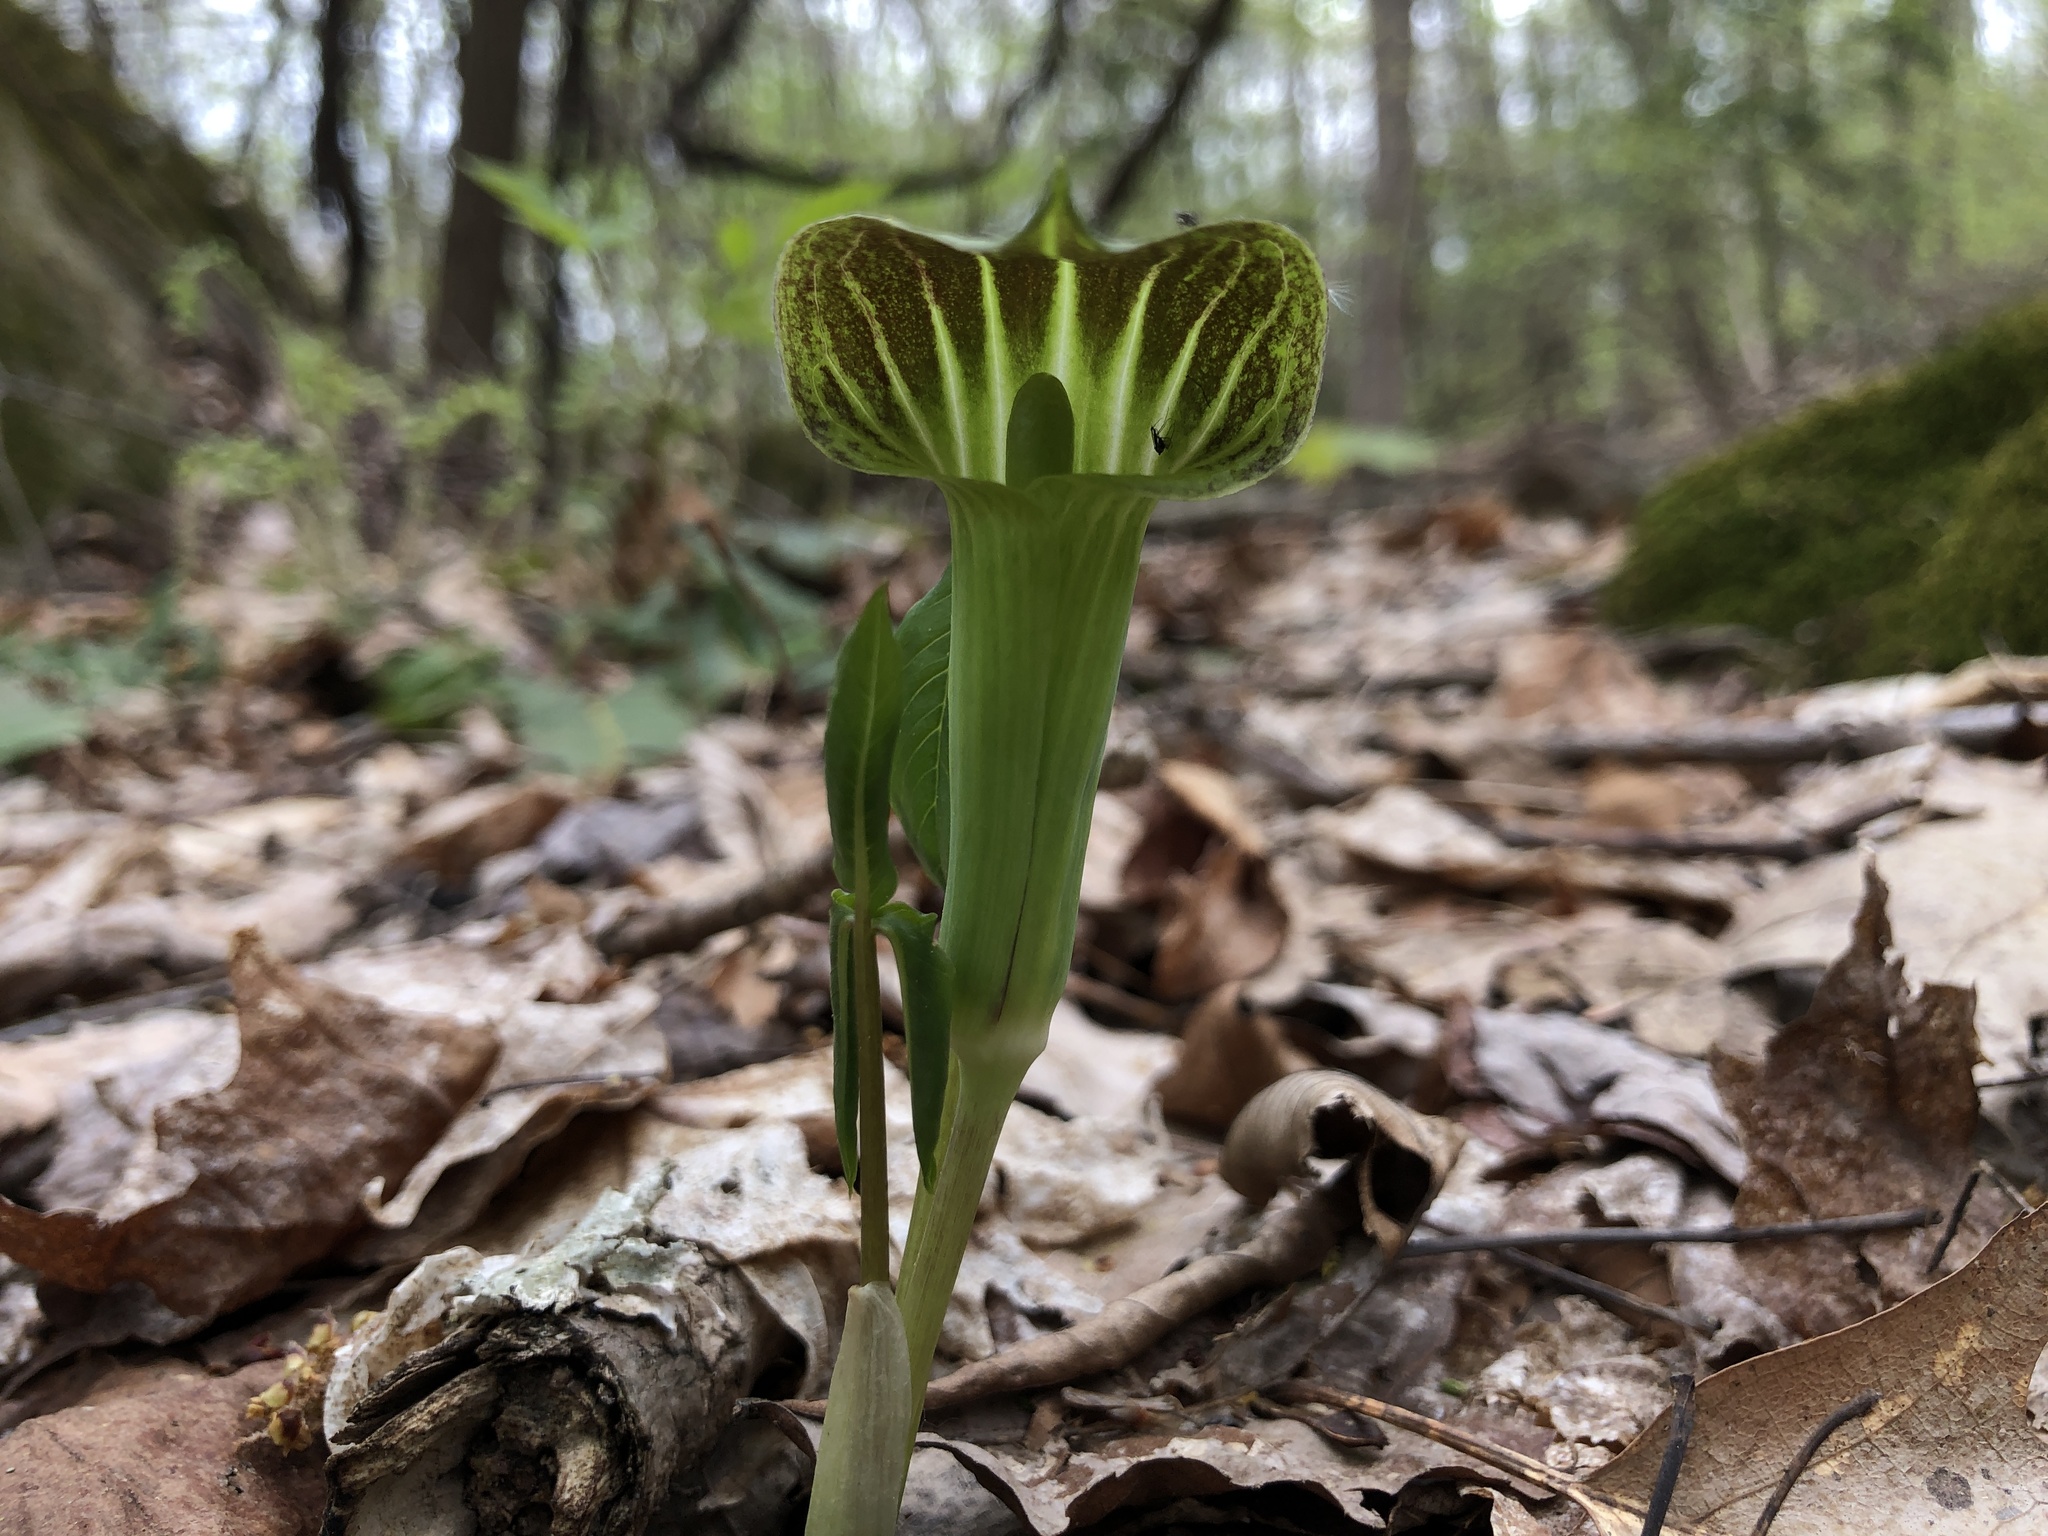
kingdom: Plantae
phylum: Tracheophyta
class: Liliopsida
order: Alismatales
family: Araceae
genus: Arisaema
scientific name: Arisaema triphyllum
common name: Jack-in-the-pulpit
